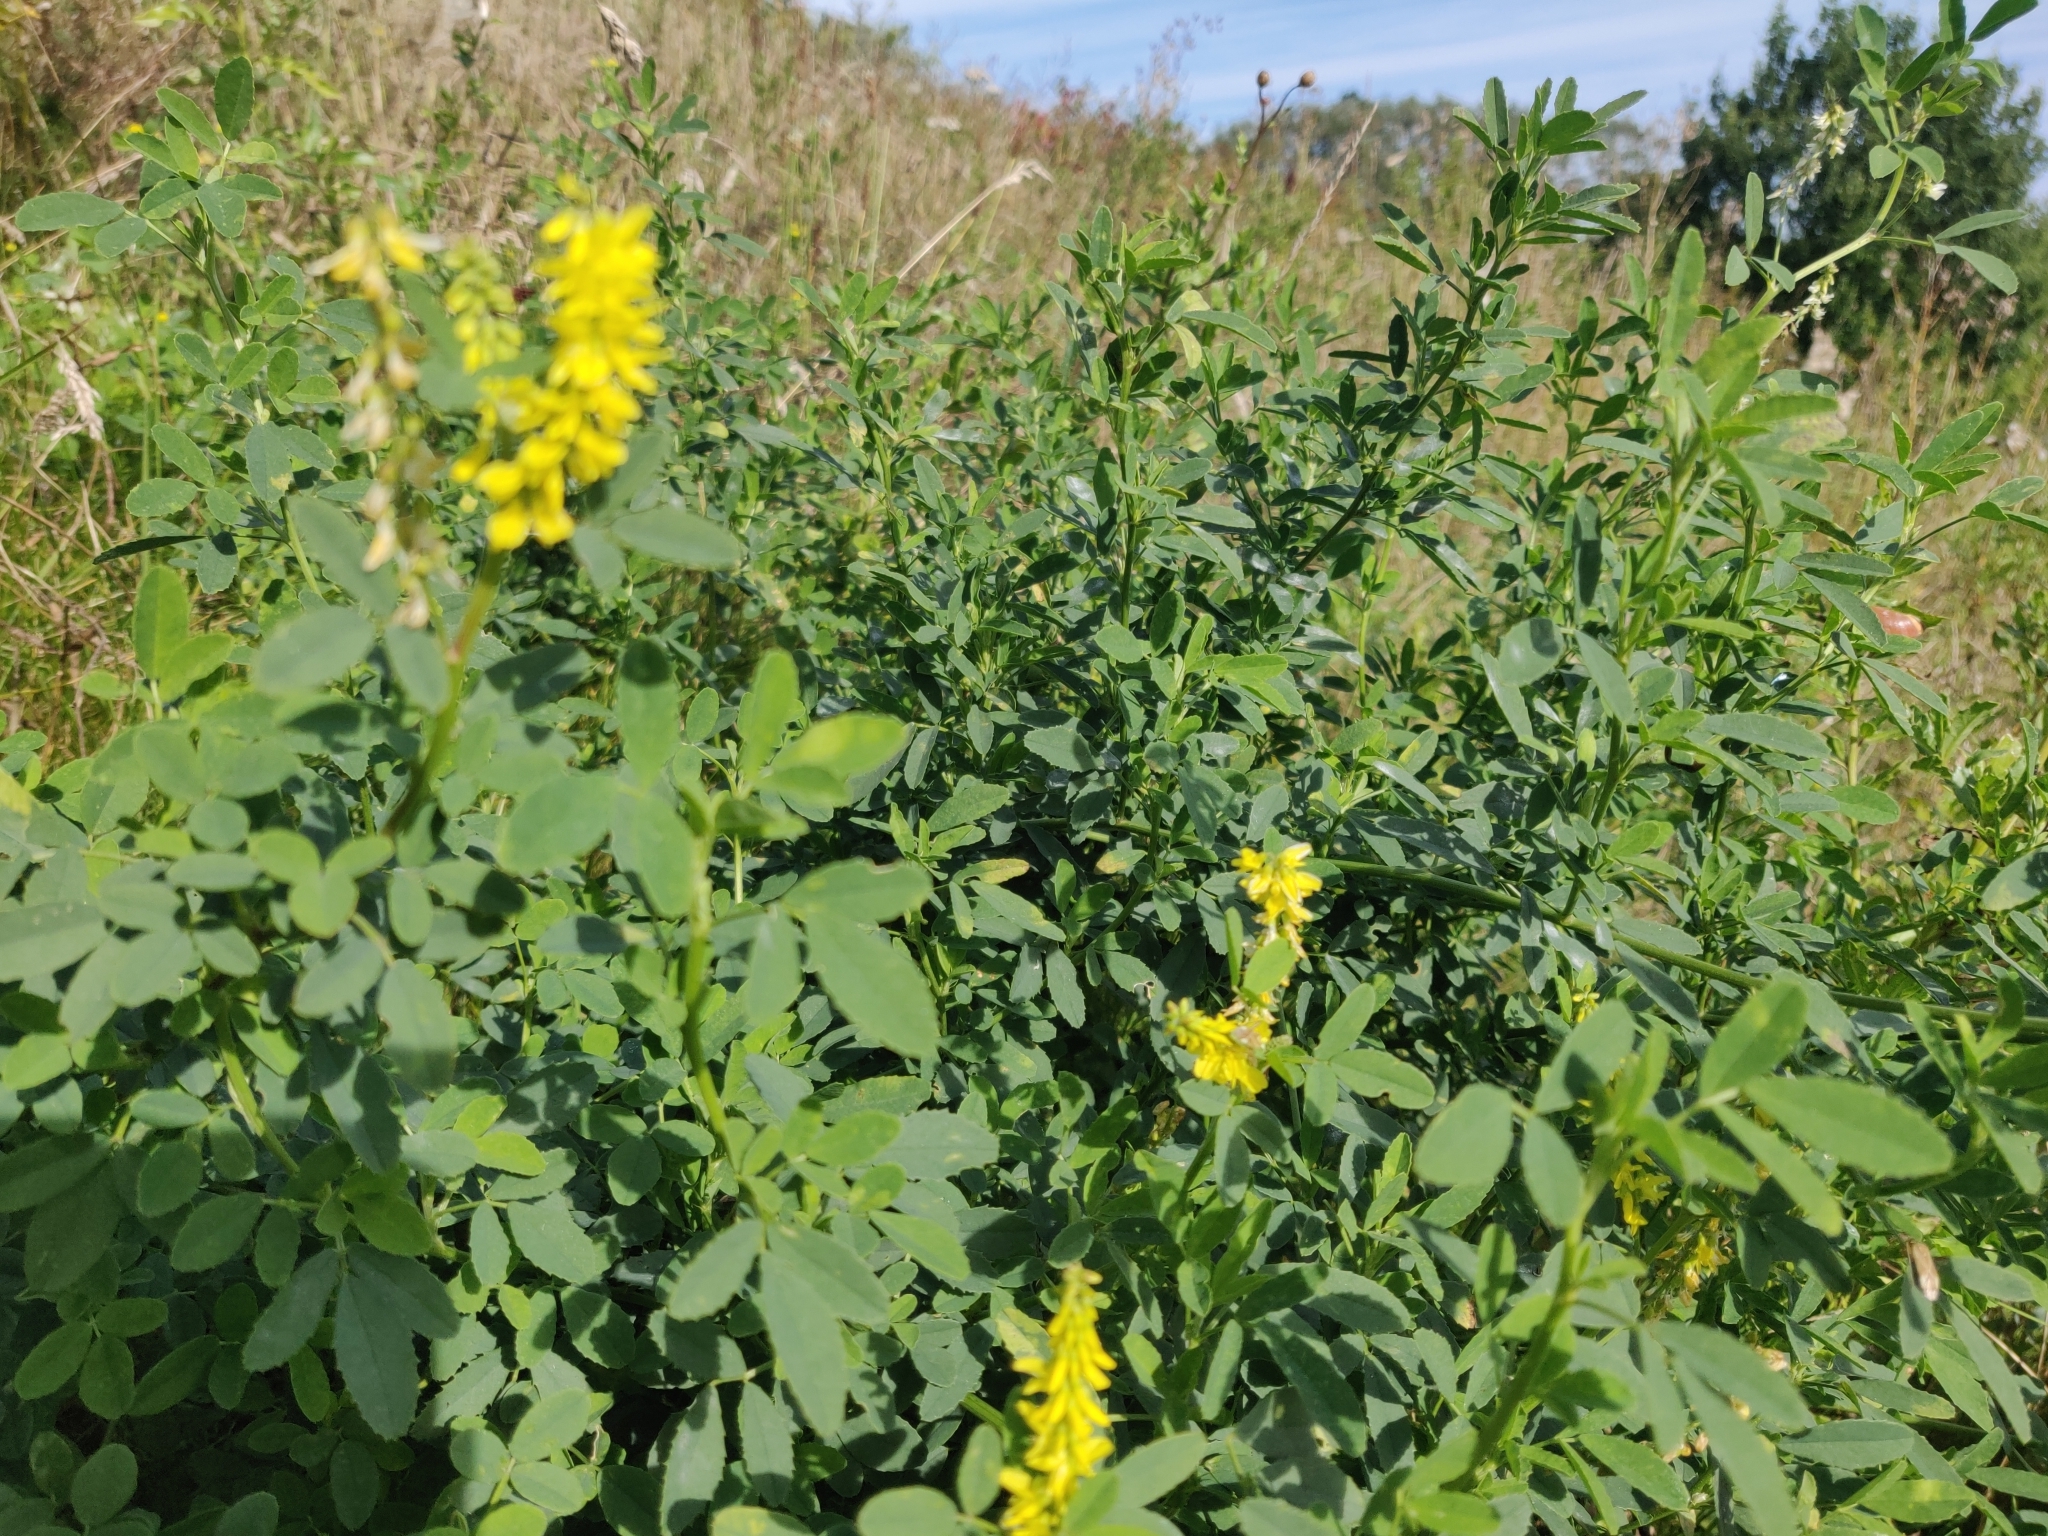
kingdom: Plantae
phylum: Tracheophyta
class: Magnoliopsida
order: Fabales
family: Fabaceae
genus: Melilotus
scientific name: Melilotus officinalis
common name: Sweetclover
